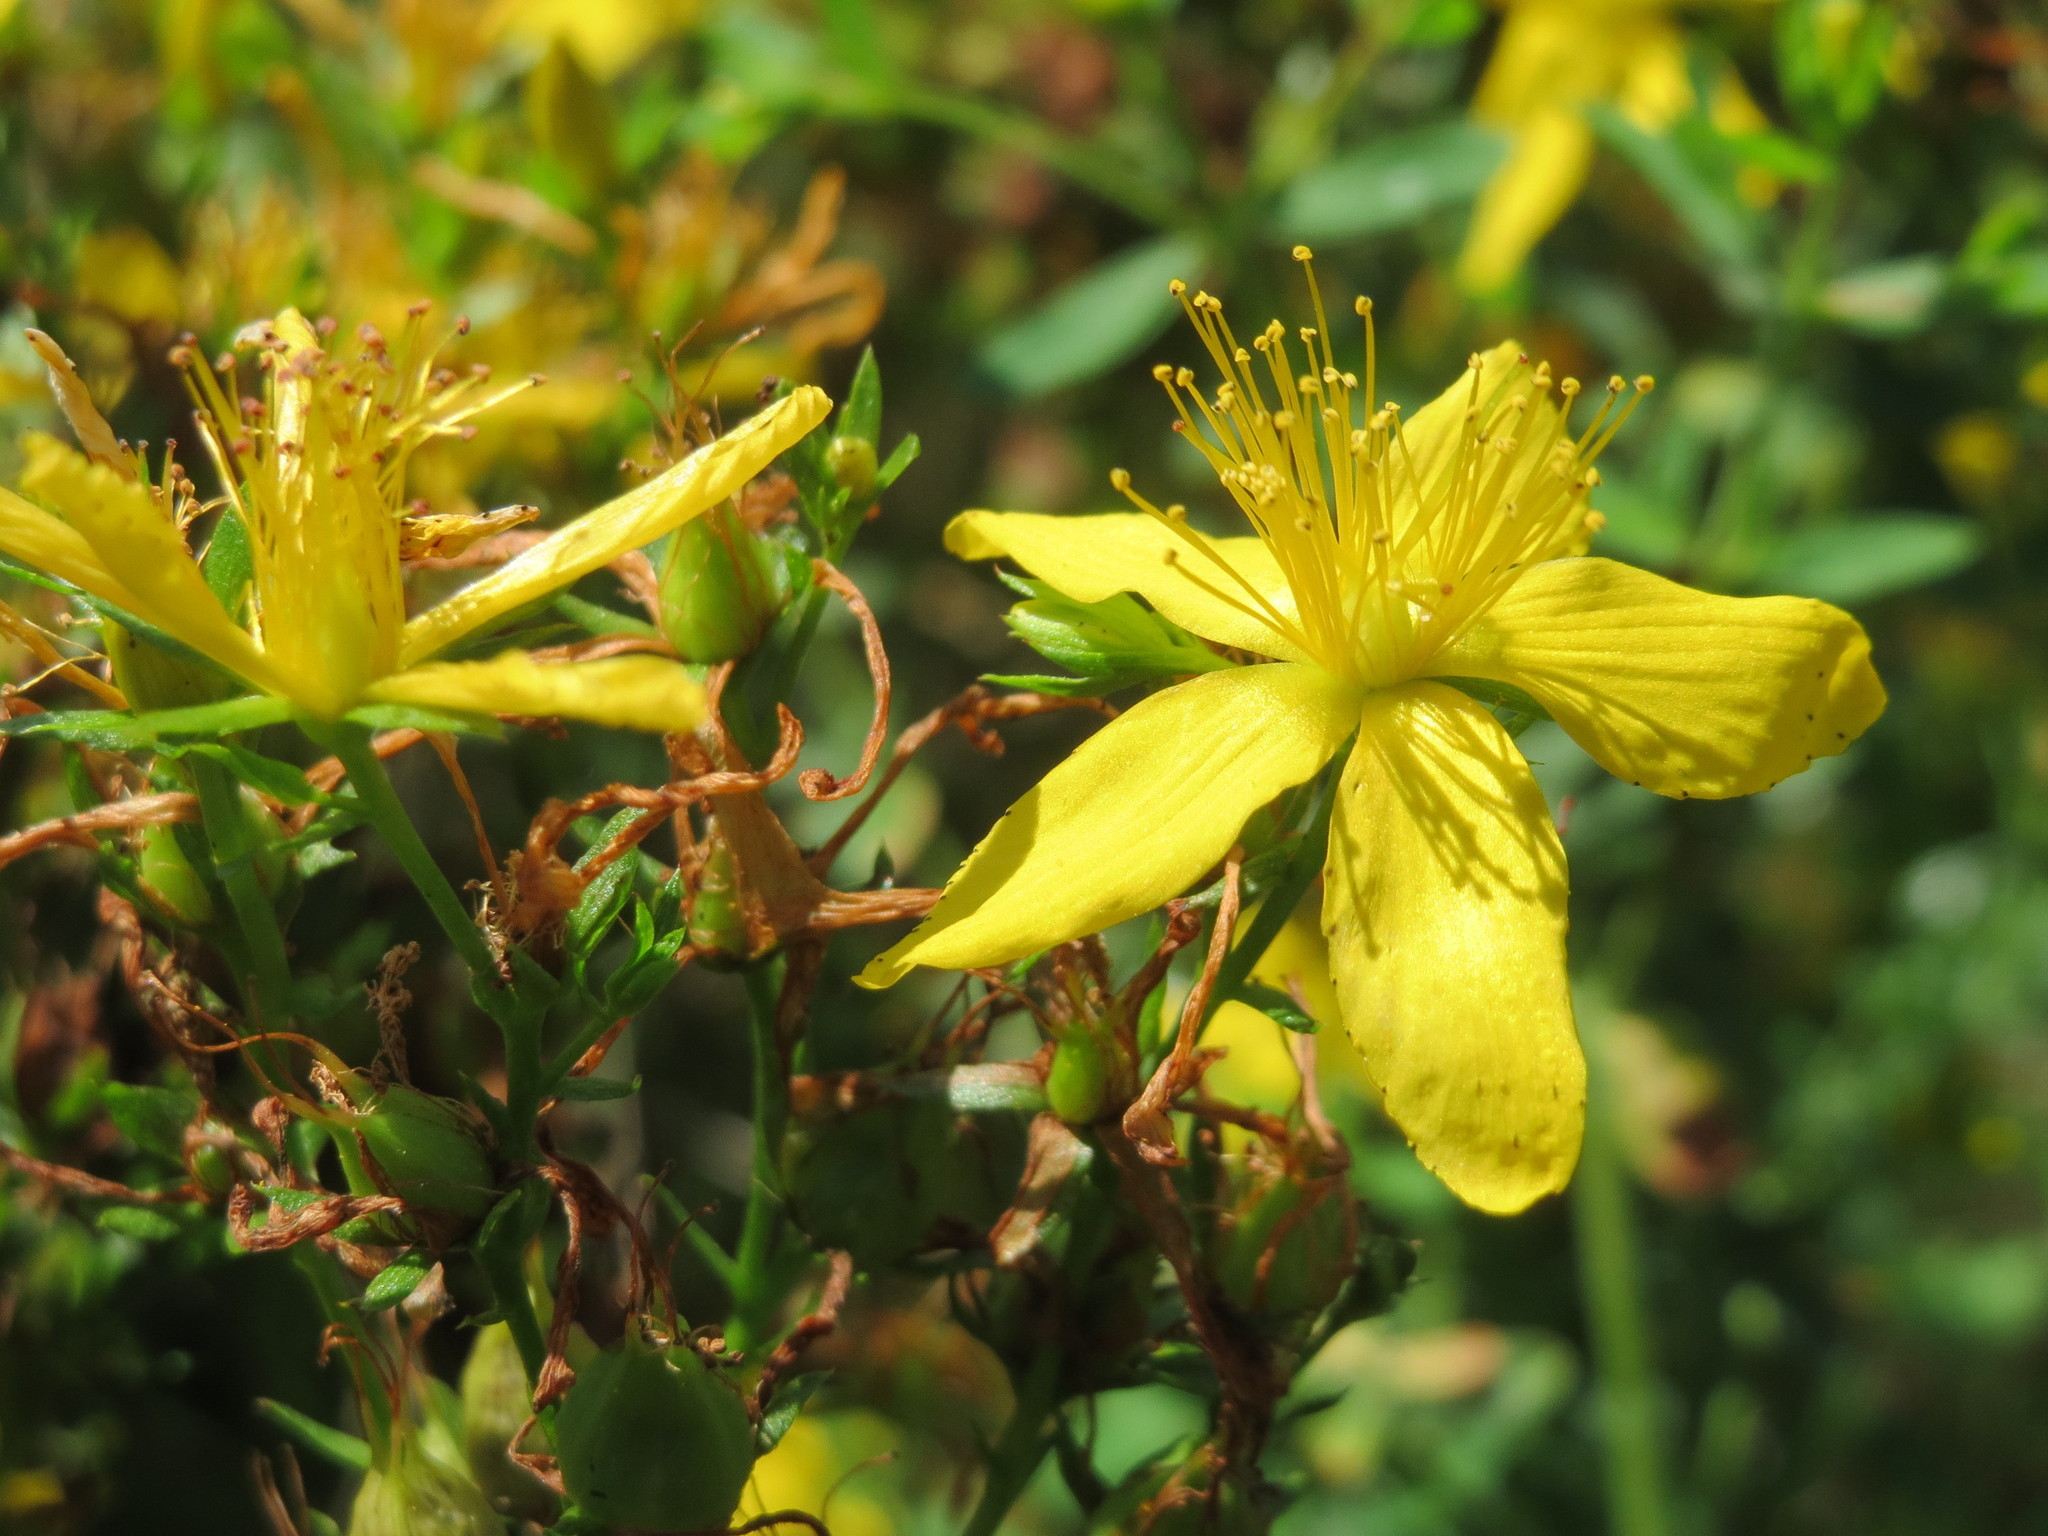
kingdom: Plantae
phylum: Tracheophyta
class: Magnoliopsida
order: Malpighiales
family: Hypericaceae
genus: Hypericum
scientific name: Hypericum perforatum
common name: Common st. johnswort
